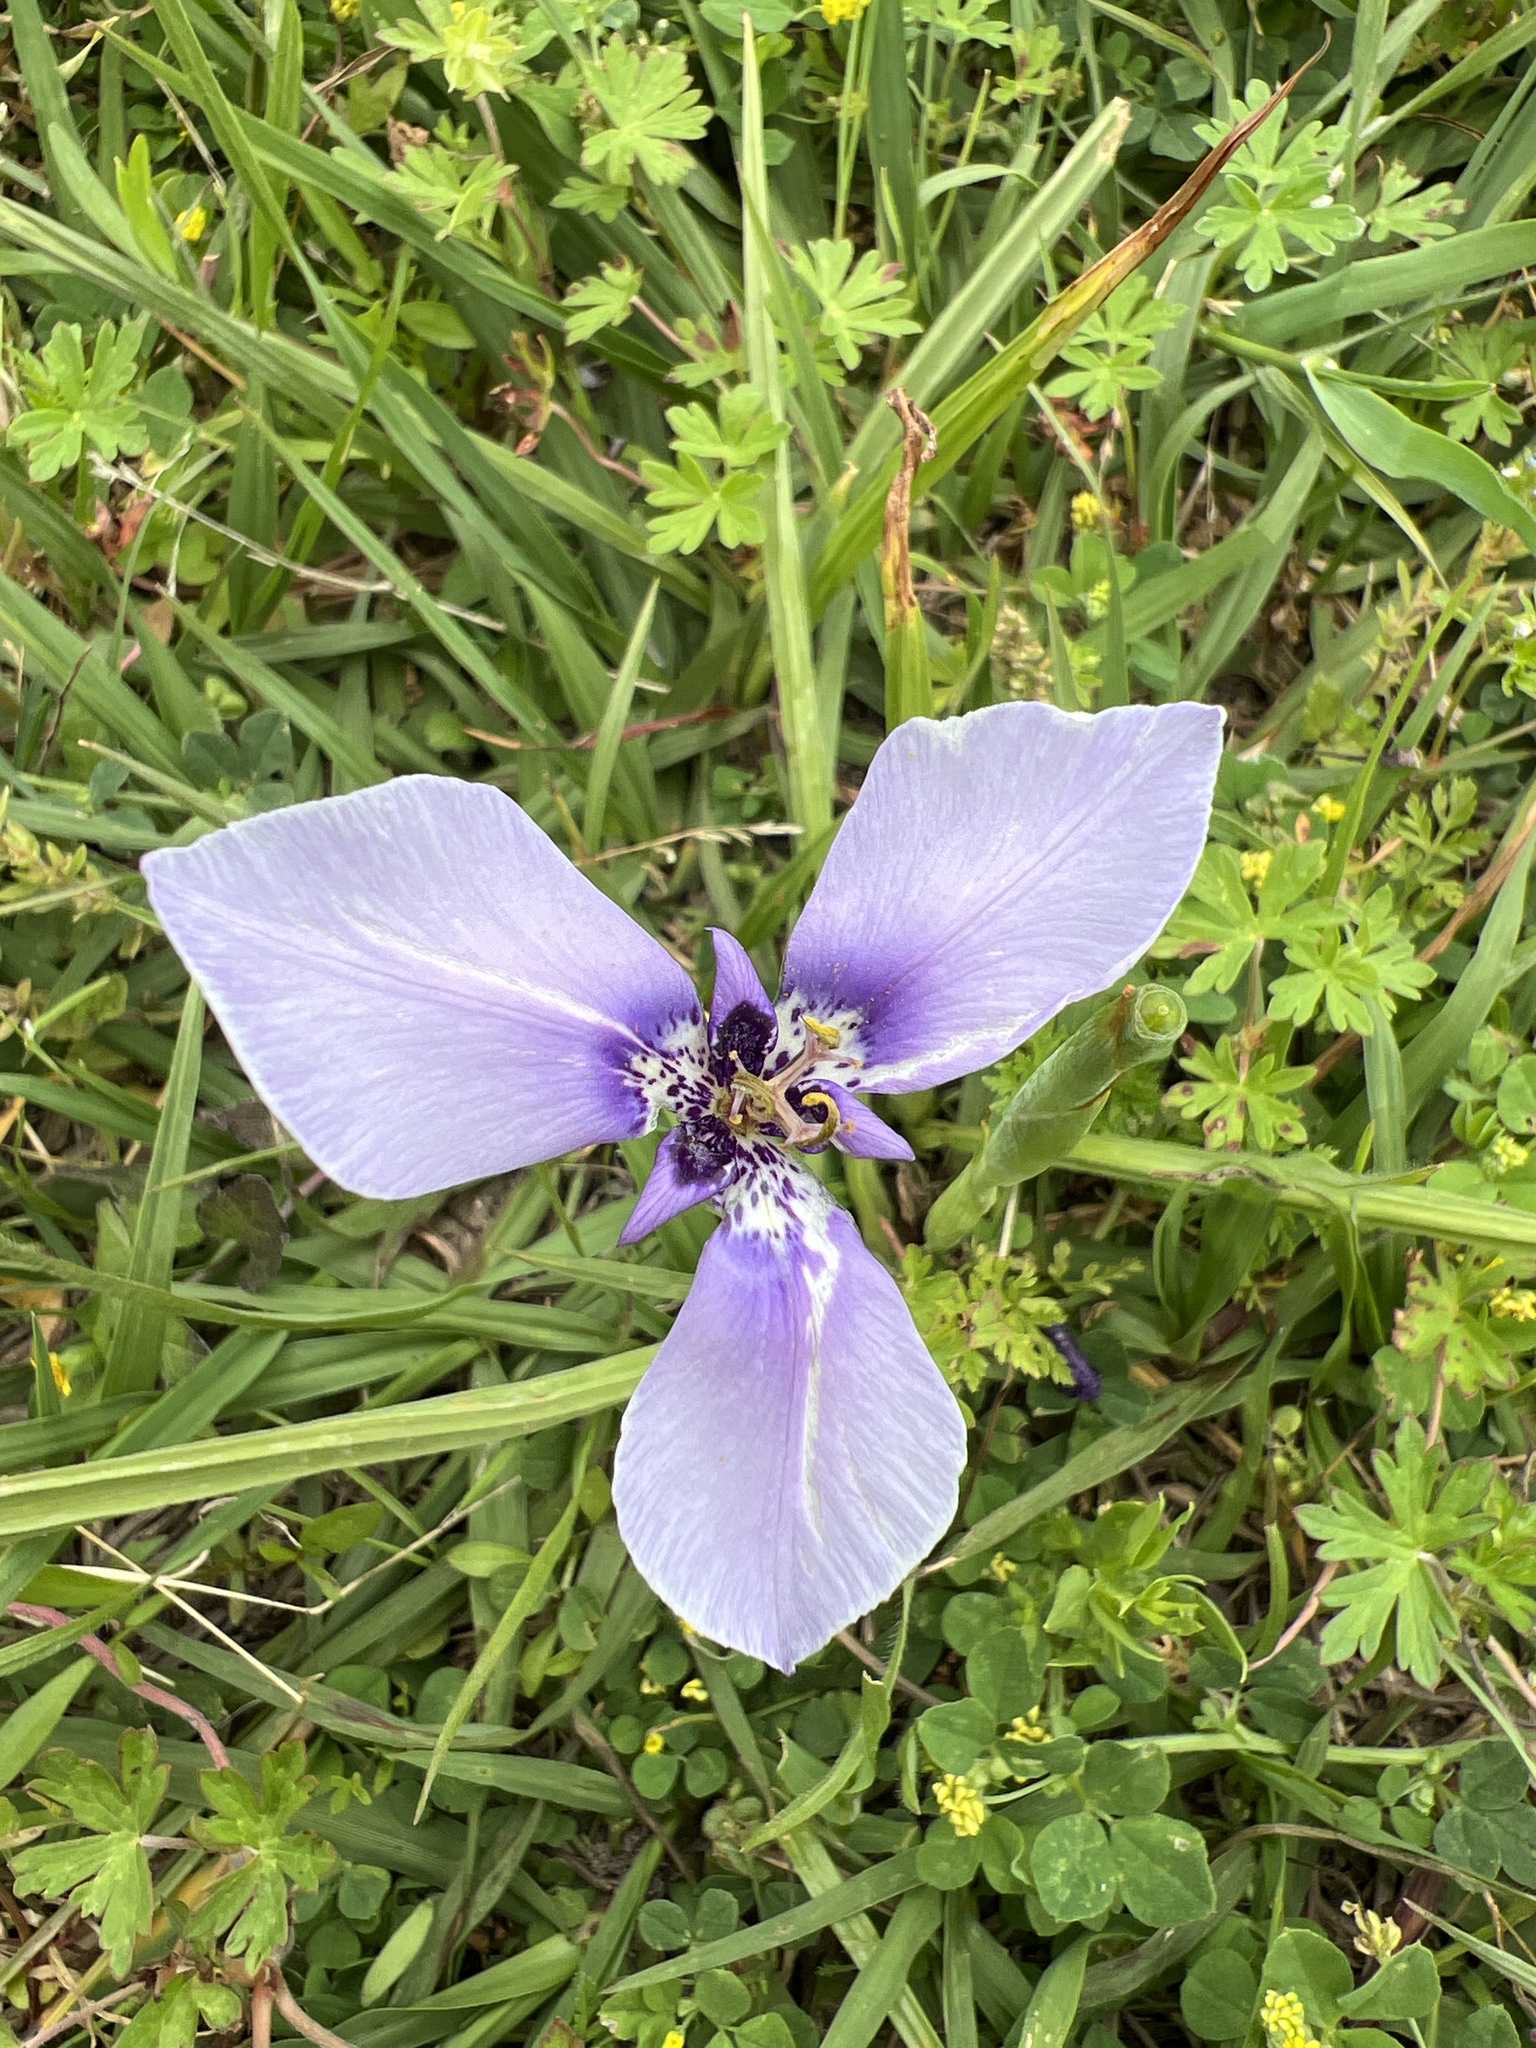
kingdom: Plantae
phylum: Tracheophyta
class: Liliopsida
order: Asparagales
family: Iridaceae
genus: Herbertia
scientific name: Herbertia lahue
